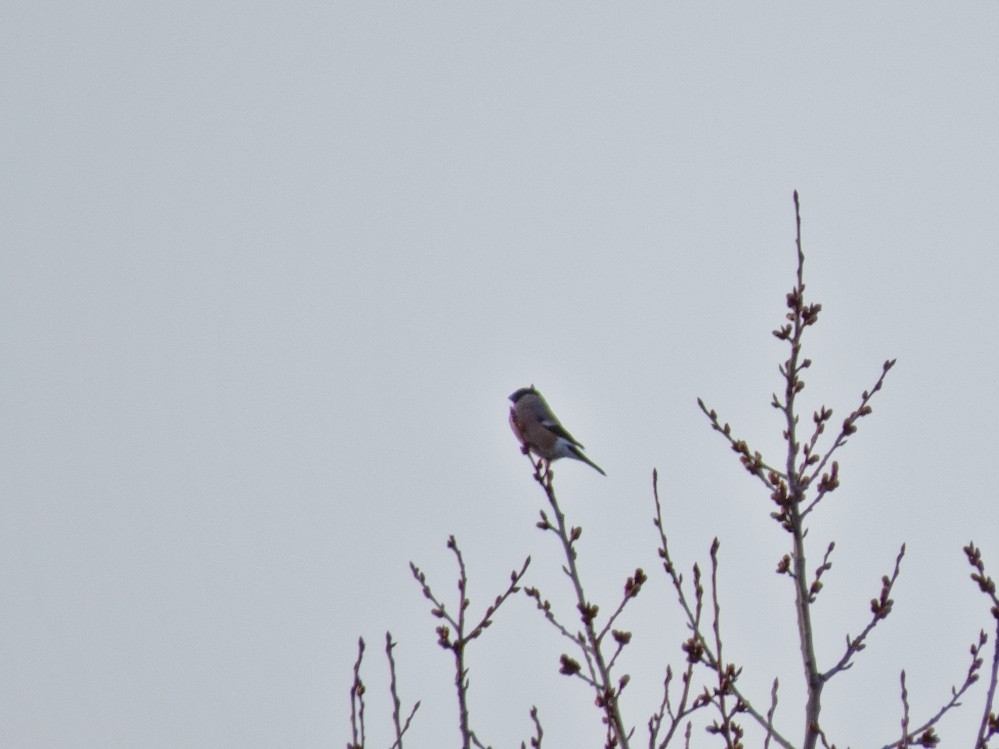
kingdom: Animalia
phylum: Chordata
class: Aves
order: Passeriformes
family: Fringillidae
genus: Pyrrhula
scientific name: Pyrrhula pyrrhula
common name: Eurasian bullfinch
